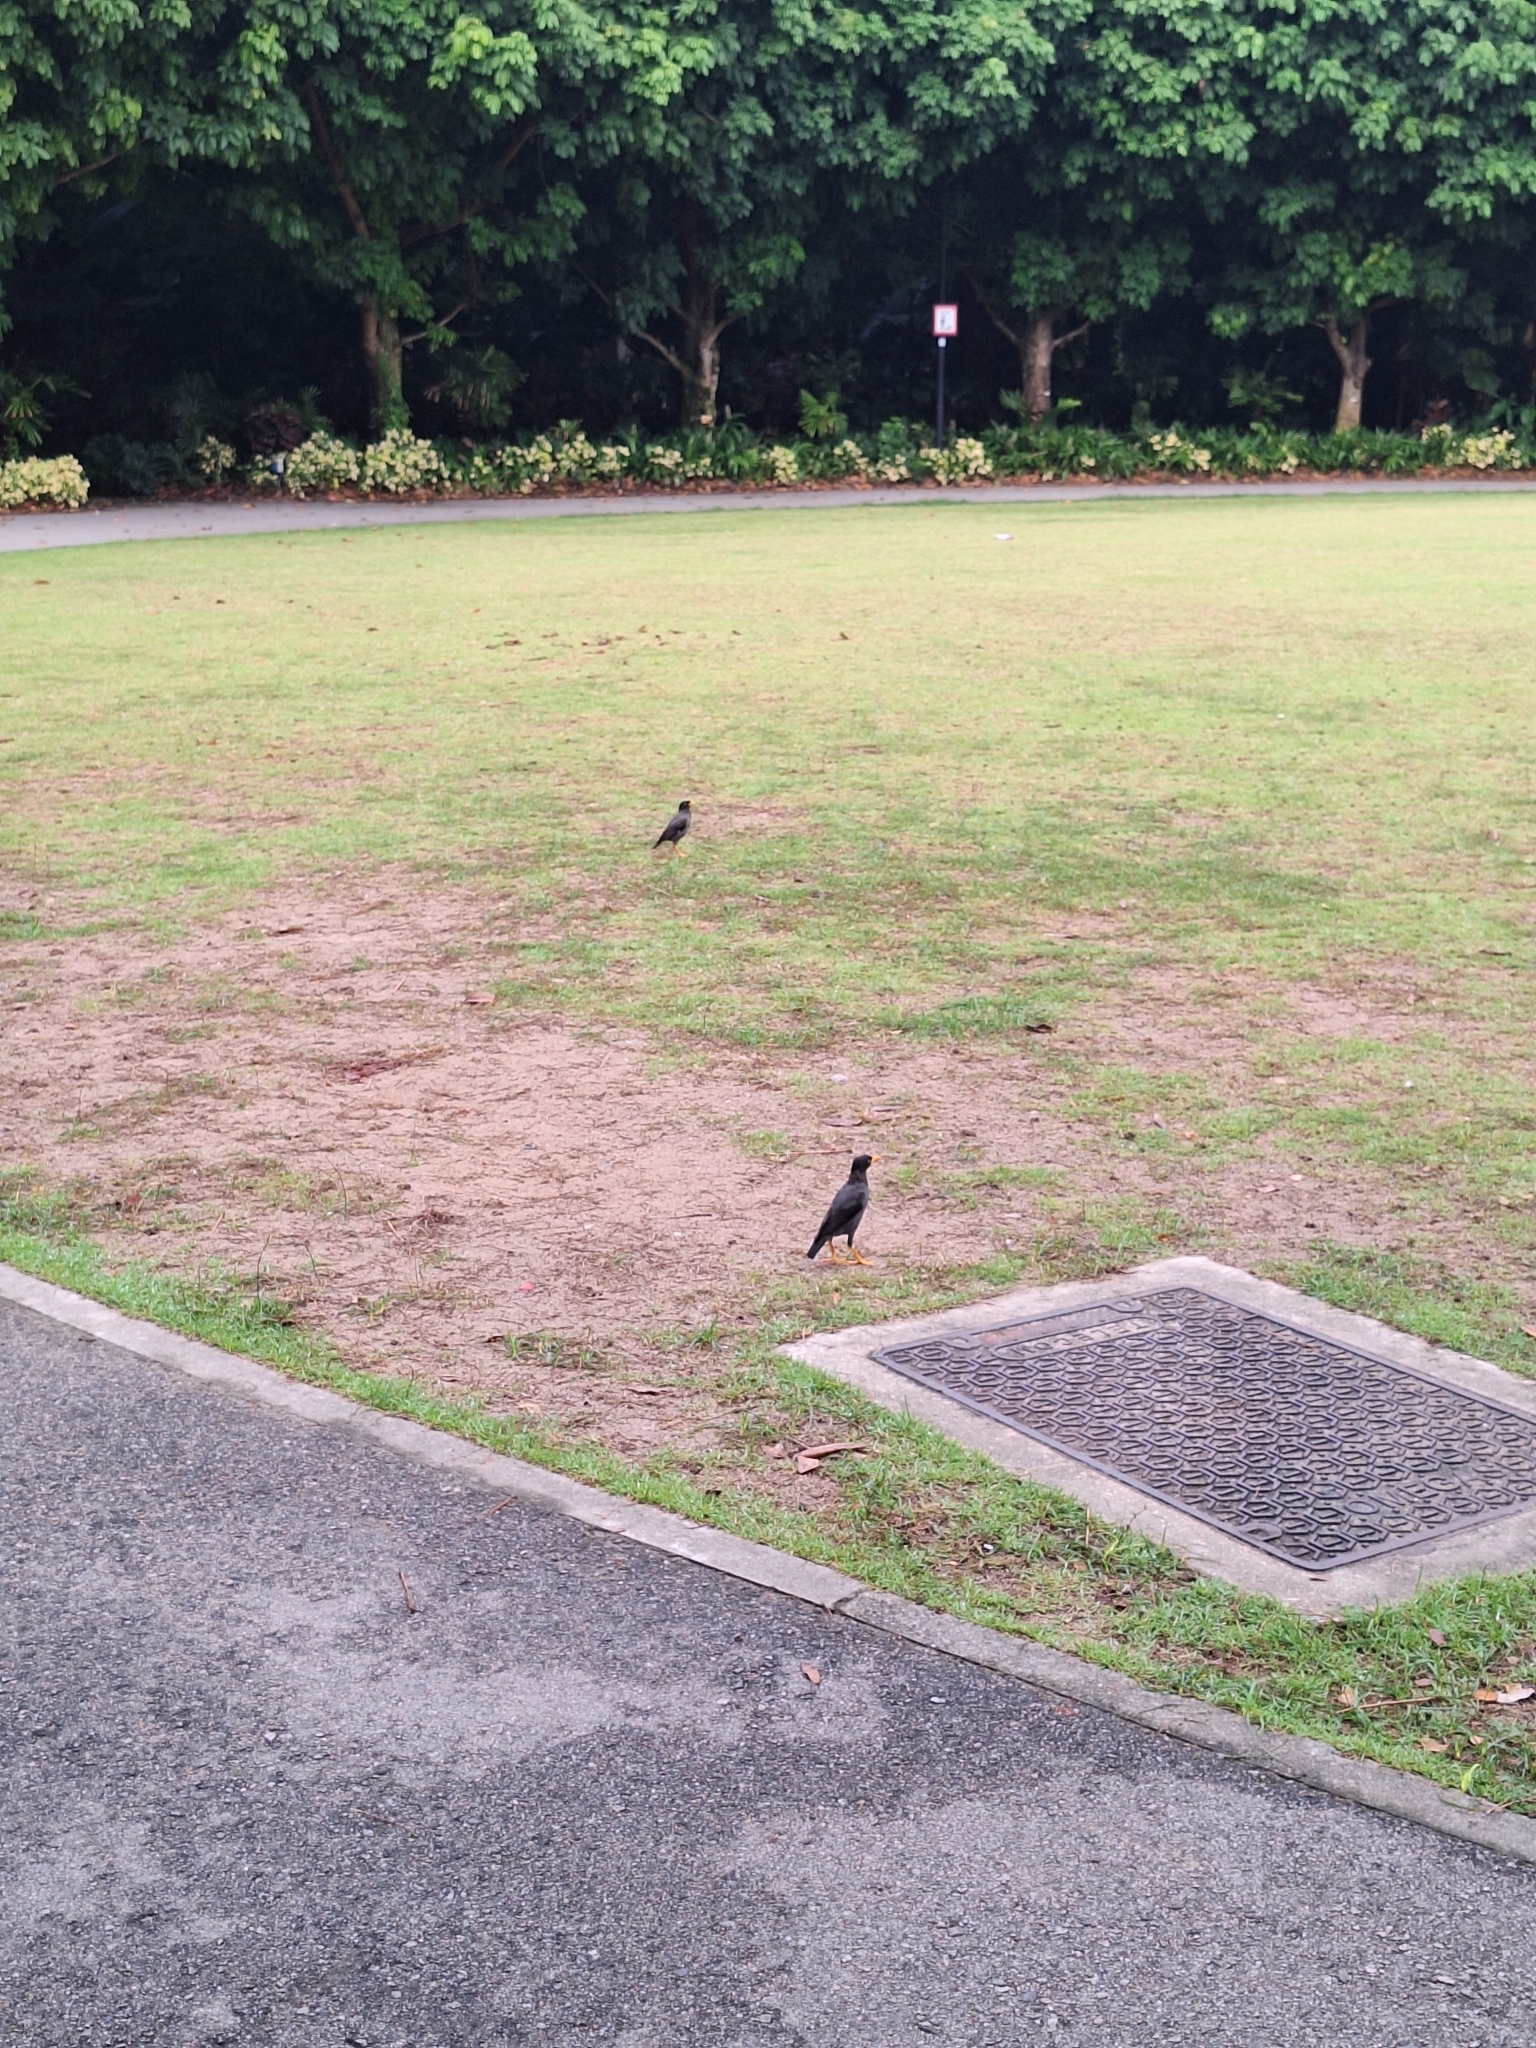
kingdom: Animalia
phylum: Chordata
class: Aves
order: Passeriformes
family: Sturnidae
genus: Acridotheres
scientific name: Acridotheres javanicus
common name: Javan myna
